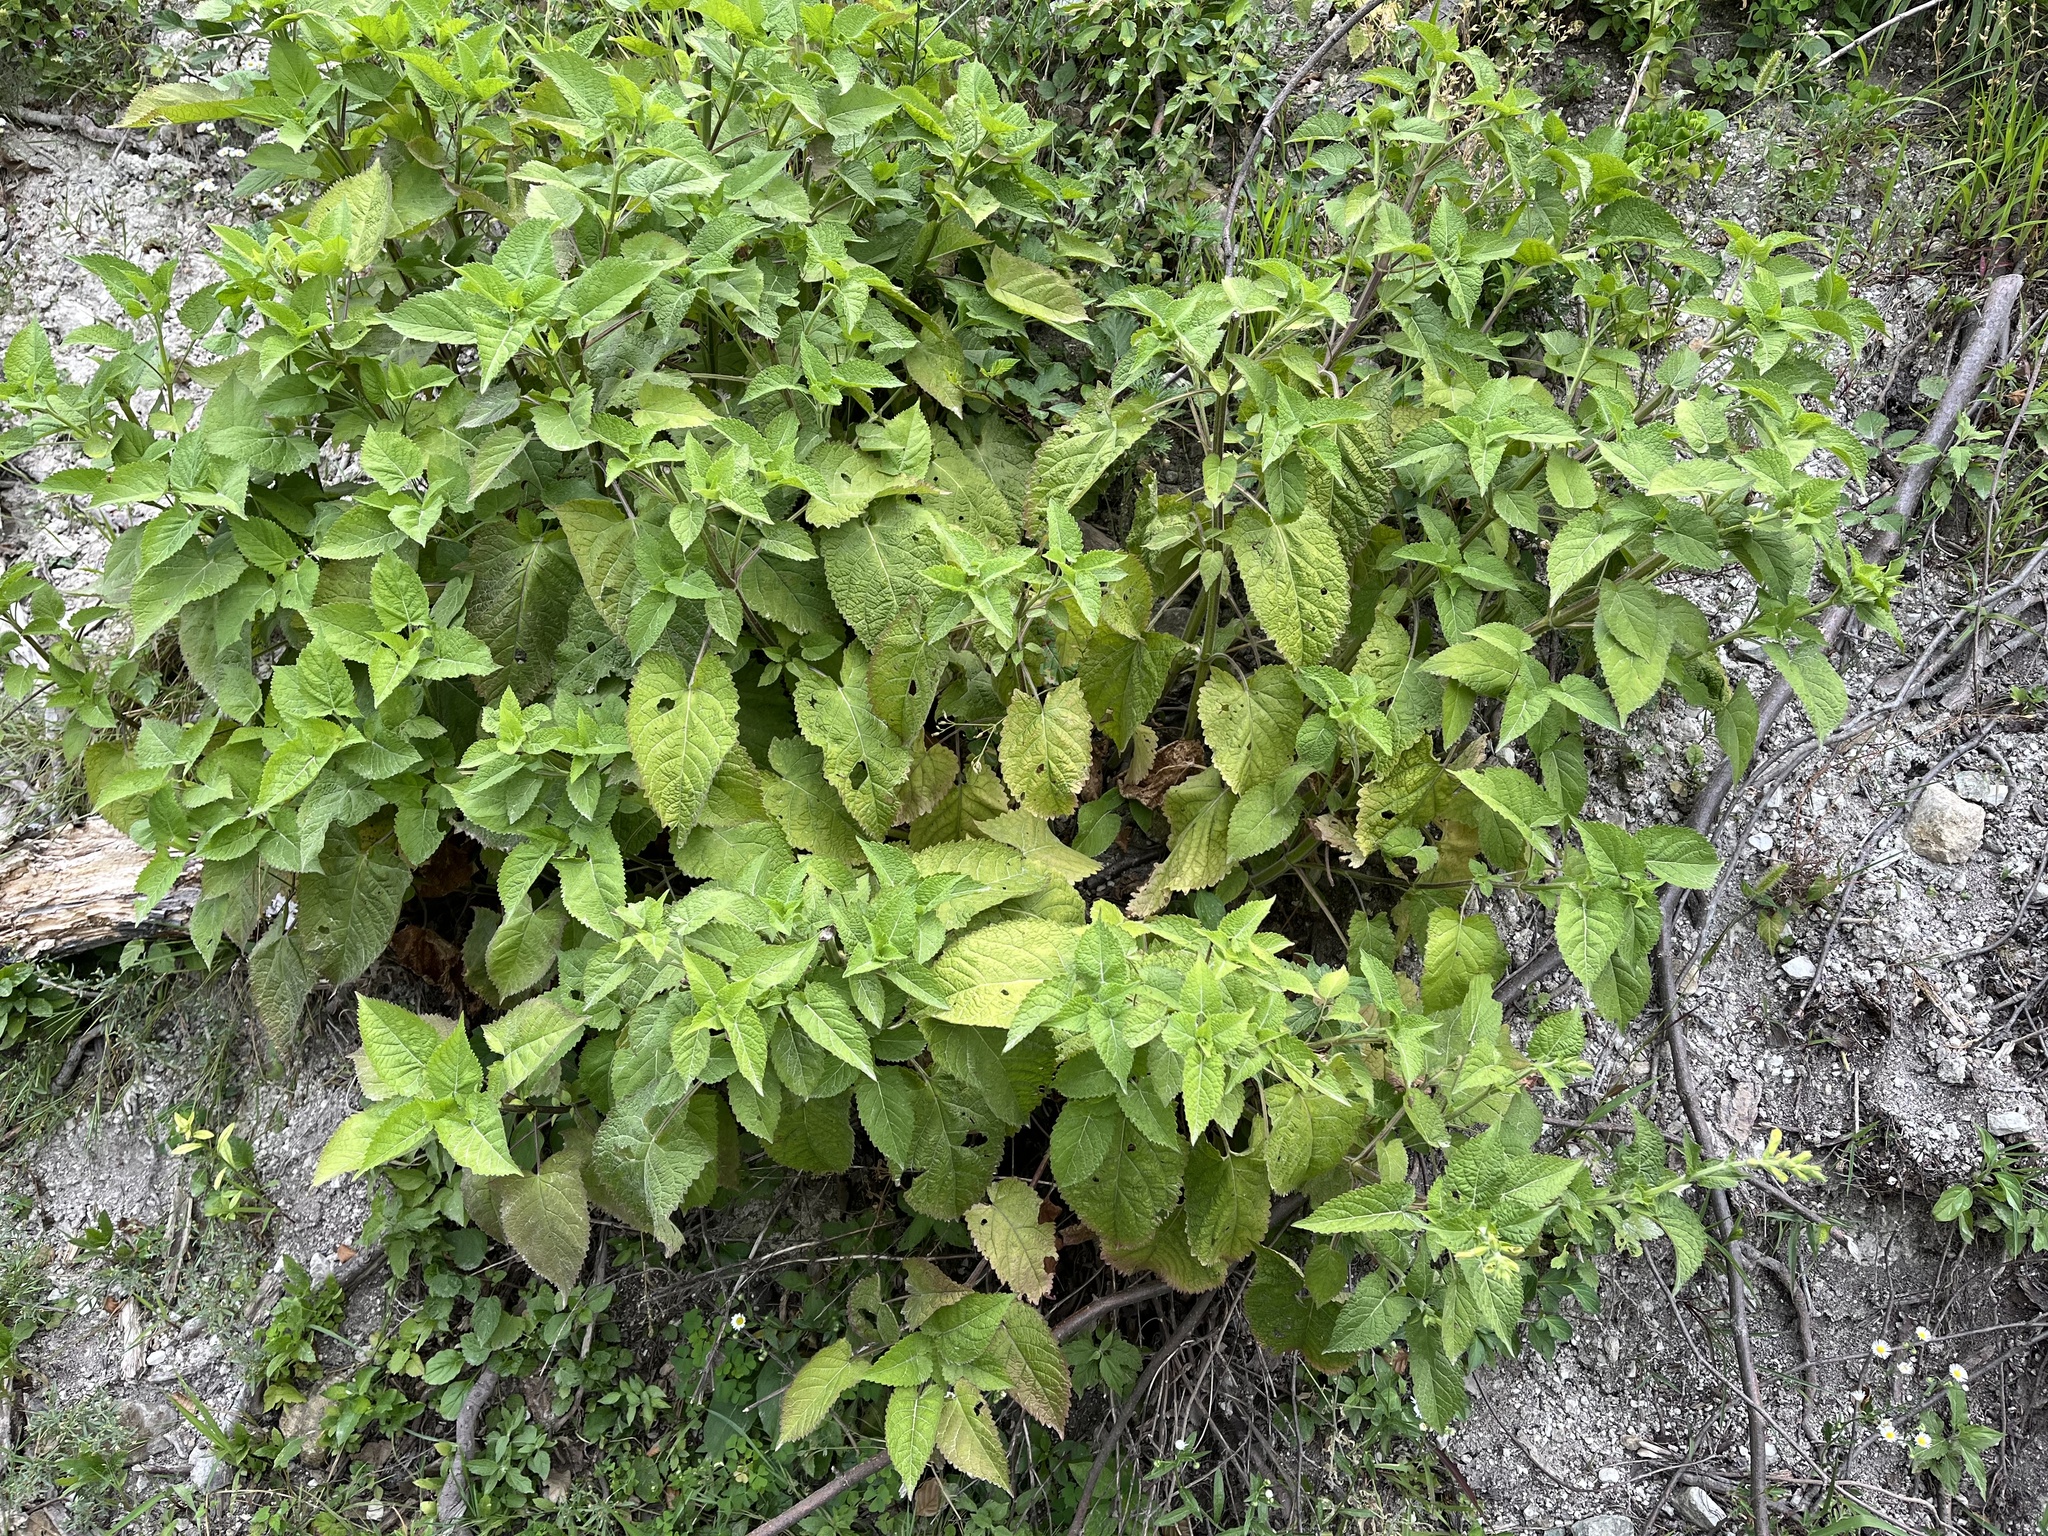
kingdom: Plantae
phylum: Tracheophyta
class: Magnoliopsida
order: Lamiales
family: Lamiaceae
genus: Salvia
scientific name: Salvia glutinosa
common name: Sticky clary
